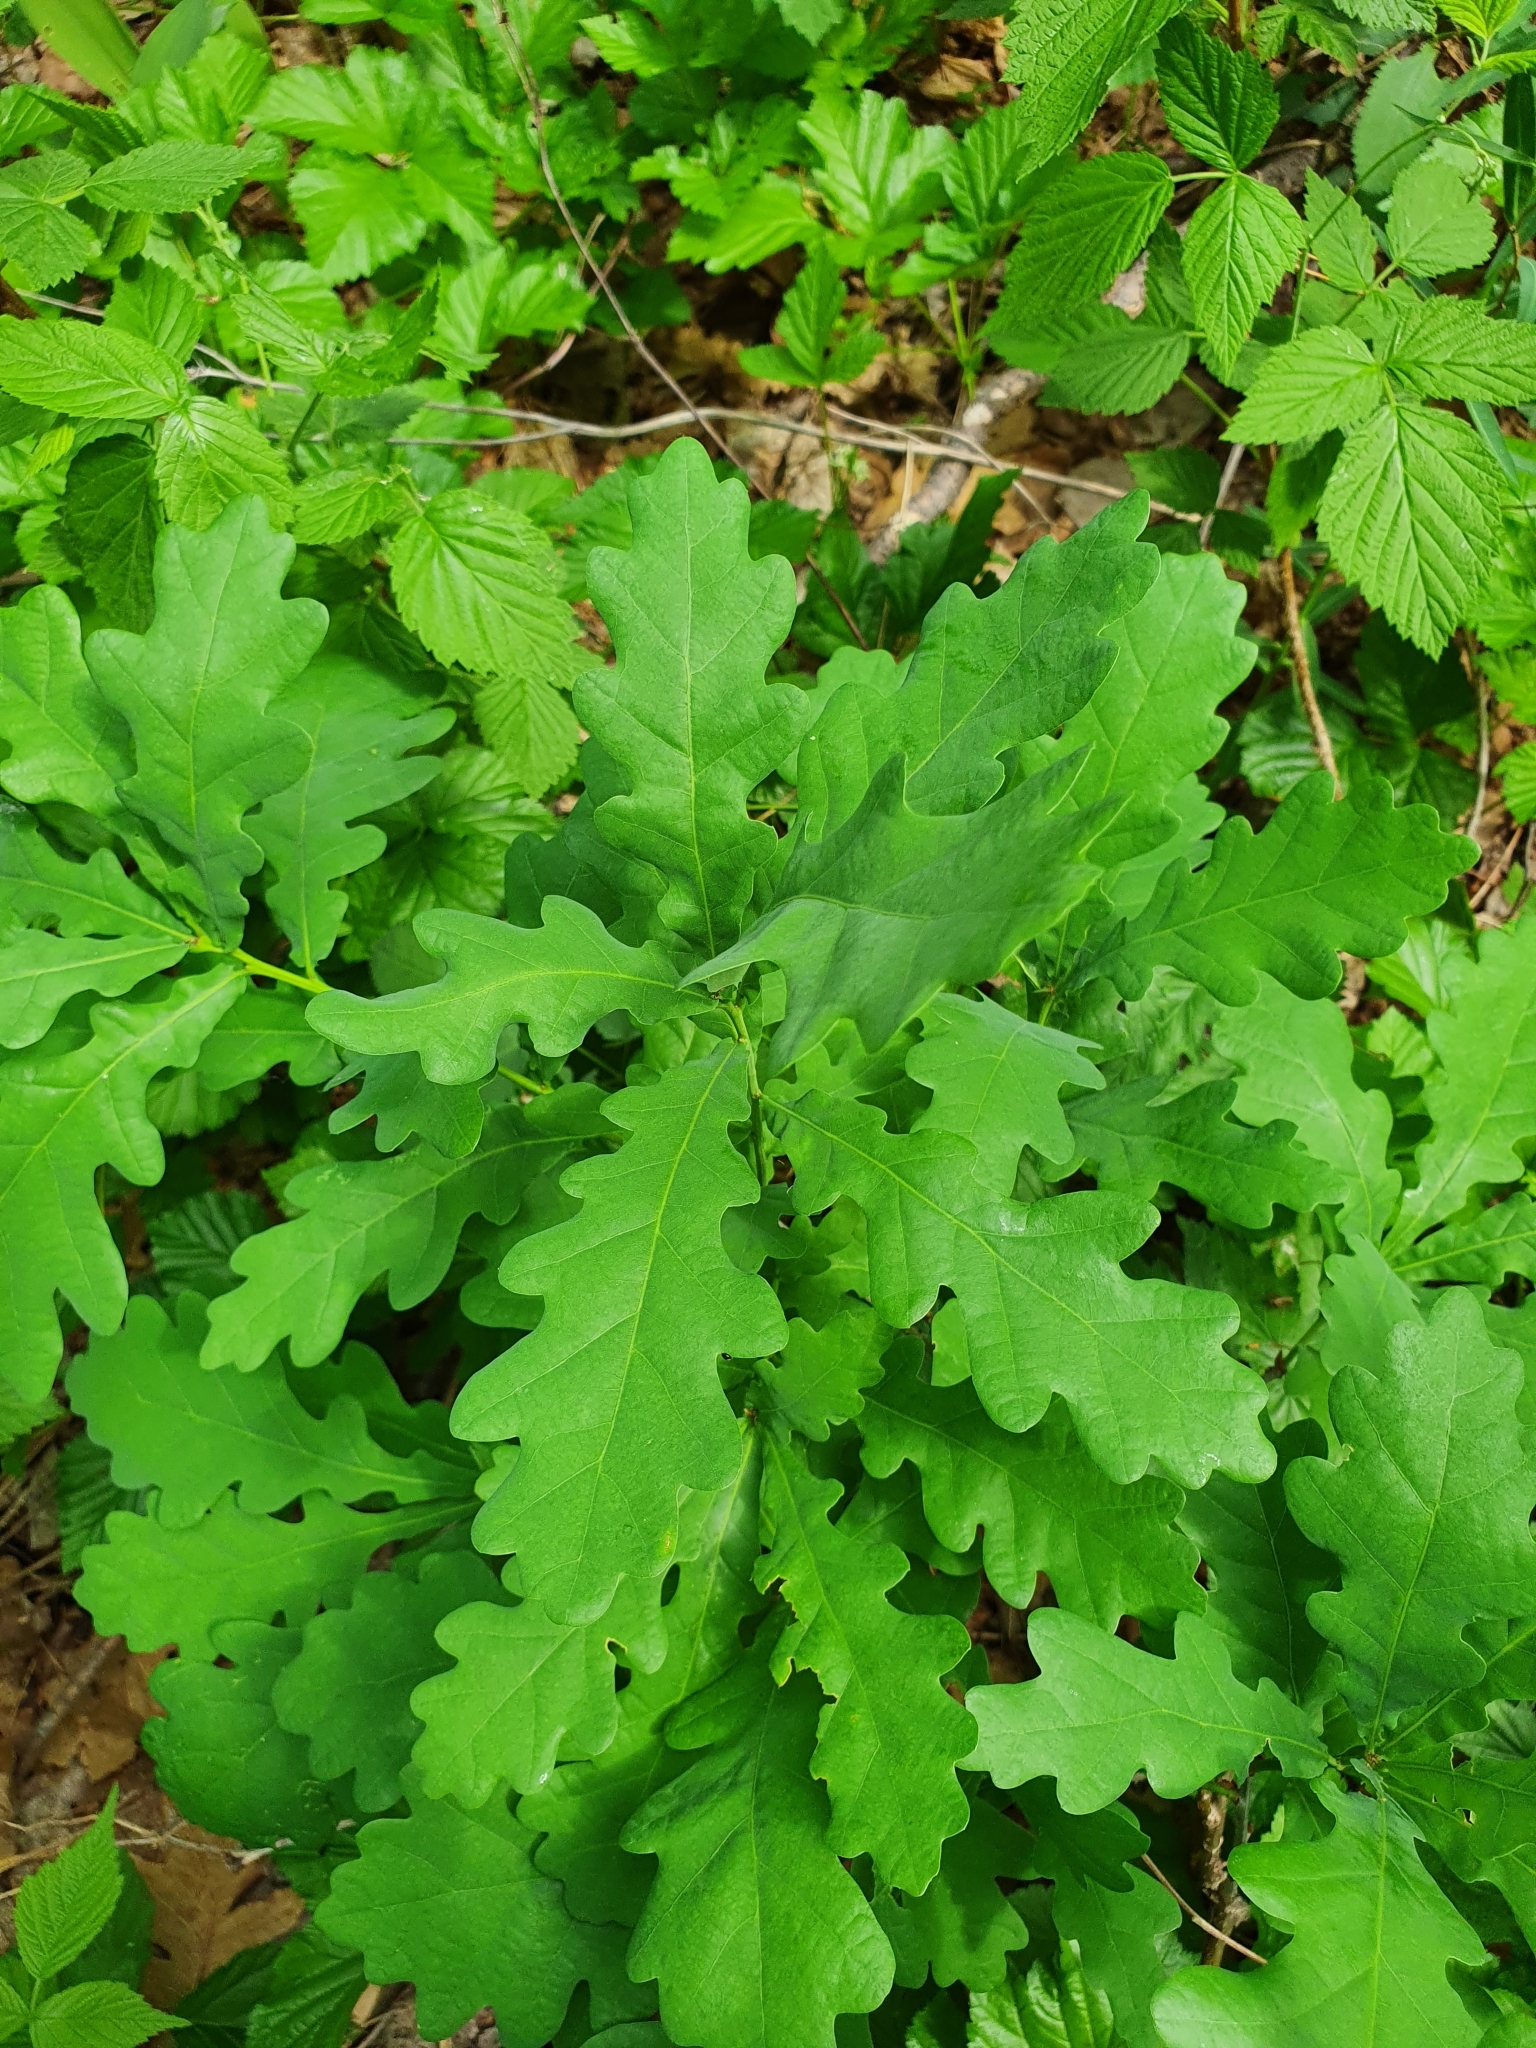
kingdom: Plantae
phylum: Tracheophyta
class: Magnoliopsida
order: Fagales
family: Fagaceae
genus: Quercus
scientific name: Quercus robur
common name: Pedunculate oak
